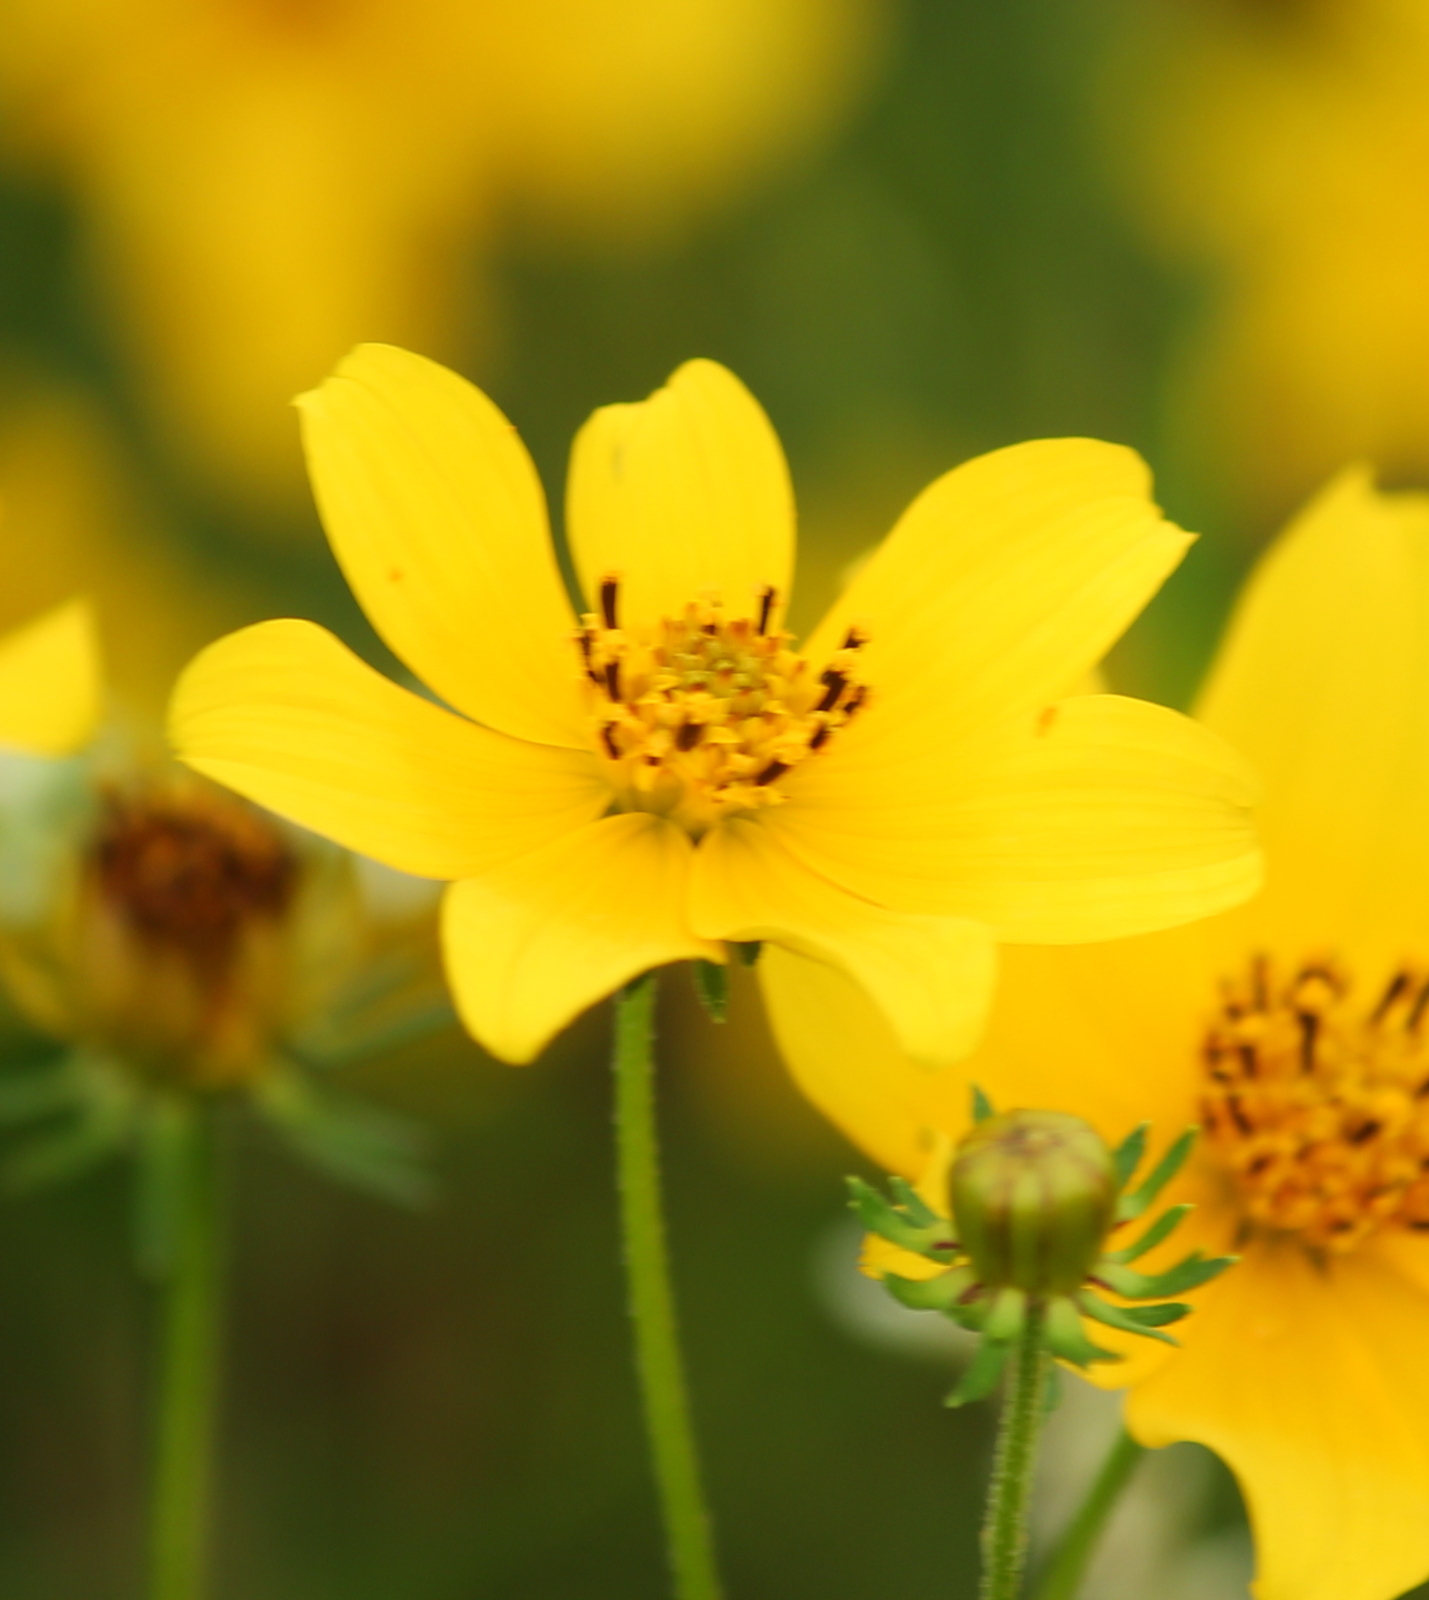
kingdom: Plantae
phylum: Tracheophyta
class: Magnoliopsida
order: Asterales
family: Asteraceae
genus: Bidens
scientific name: Bidens aristosa
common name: Western tickseed
